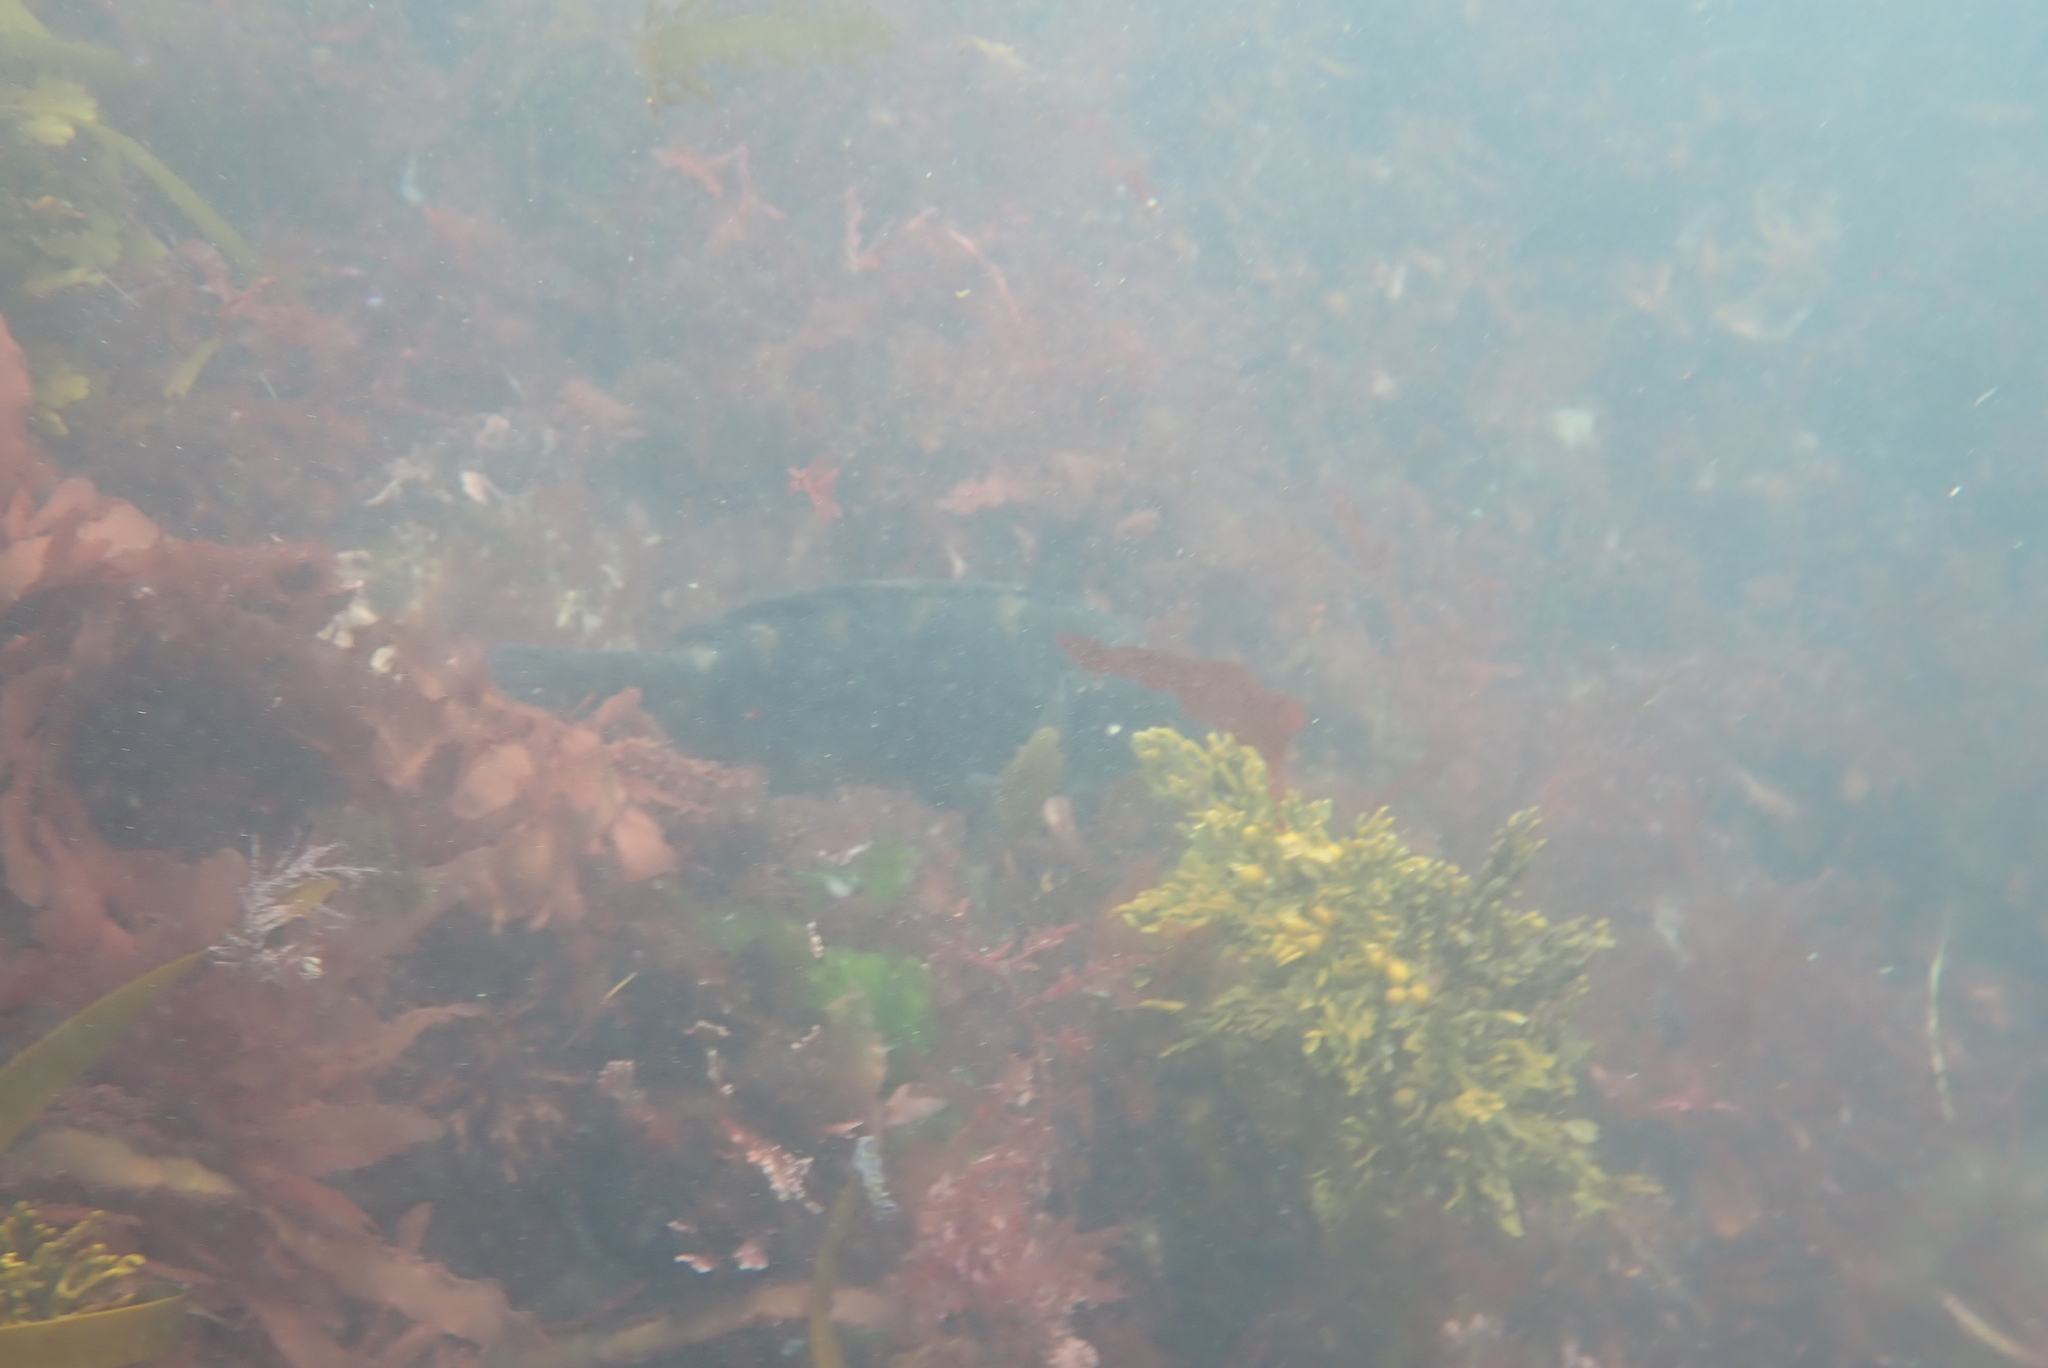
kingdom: Animalia
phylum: Chordata
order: Perciformes
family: Labridae
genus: Notolabrus
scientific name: Notolabrus fucicola
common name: Banded parrotfish
